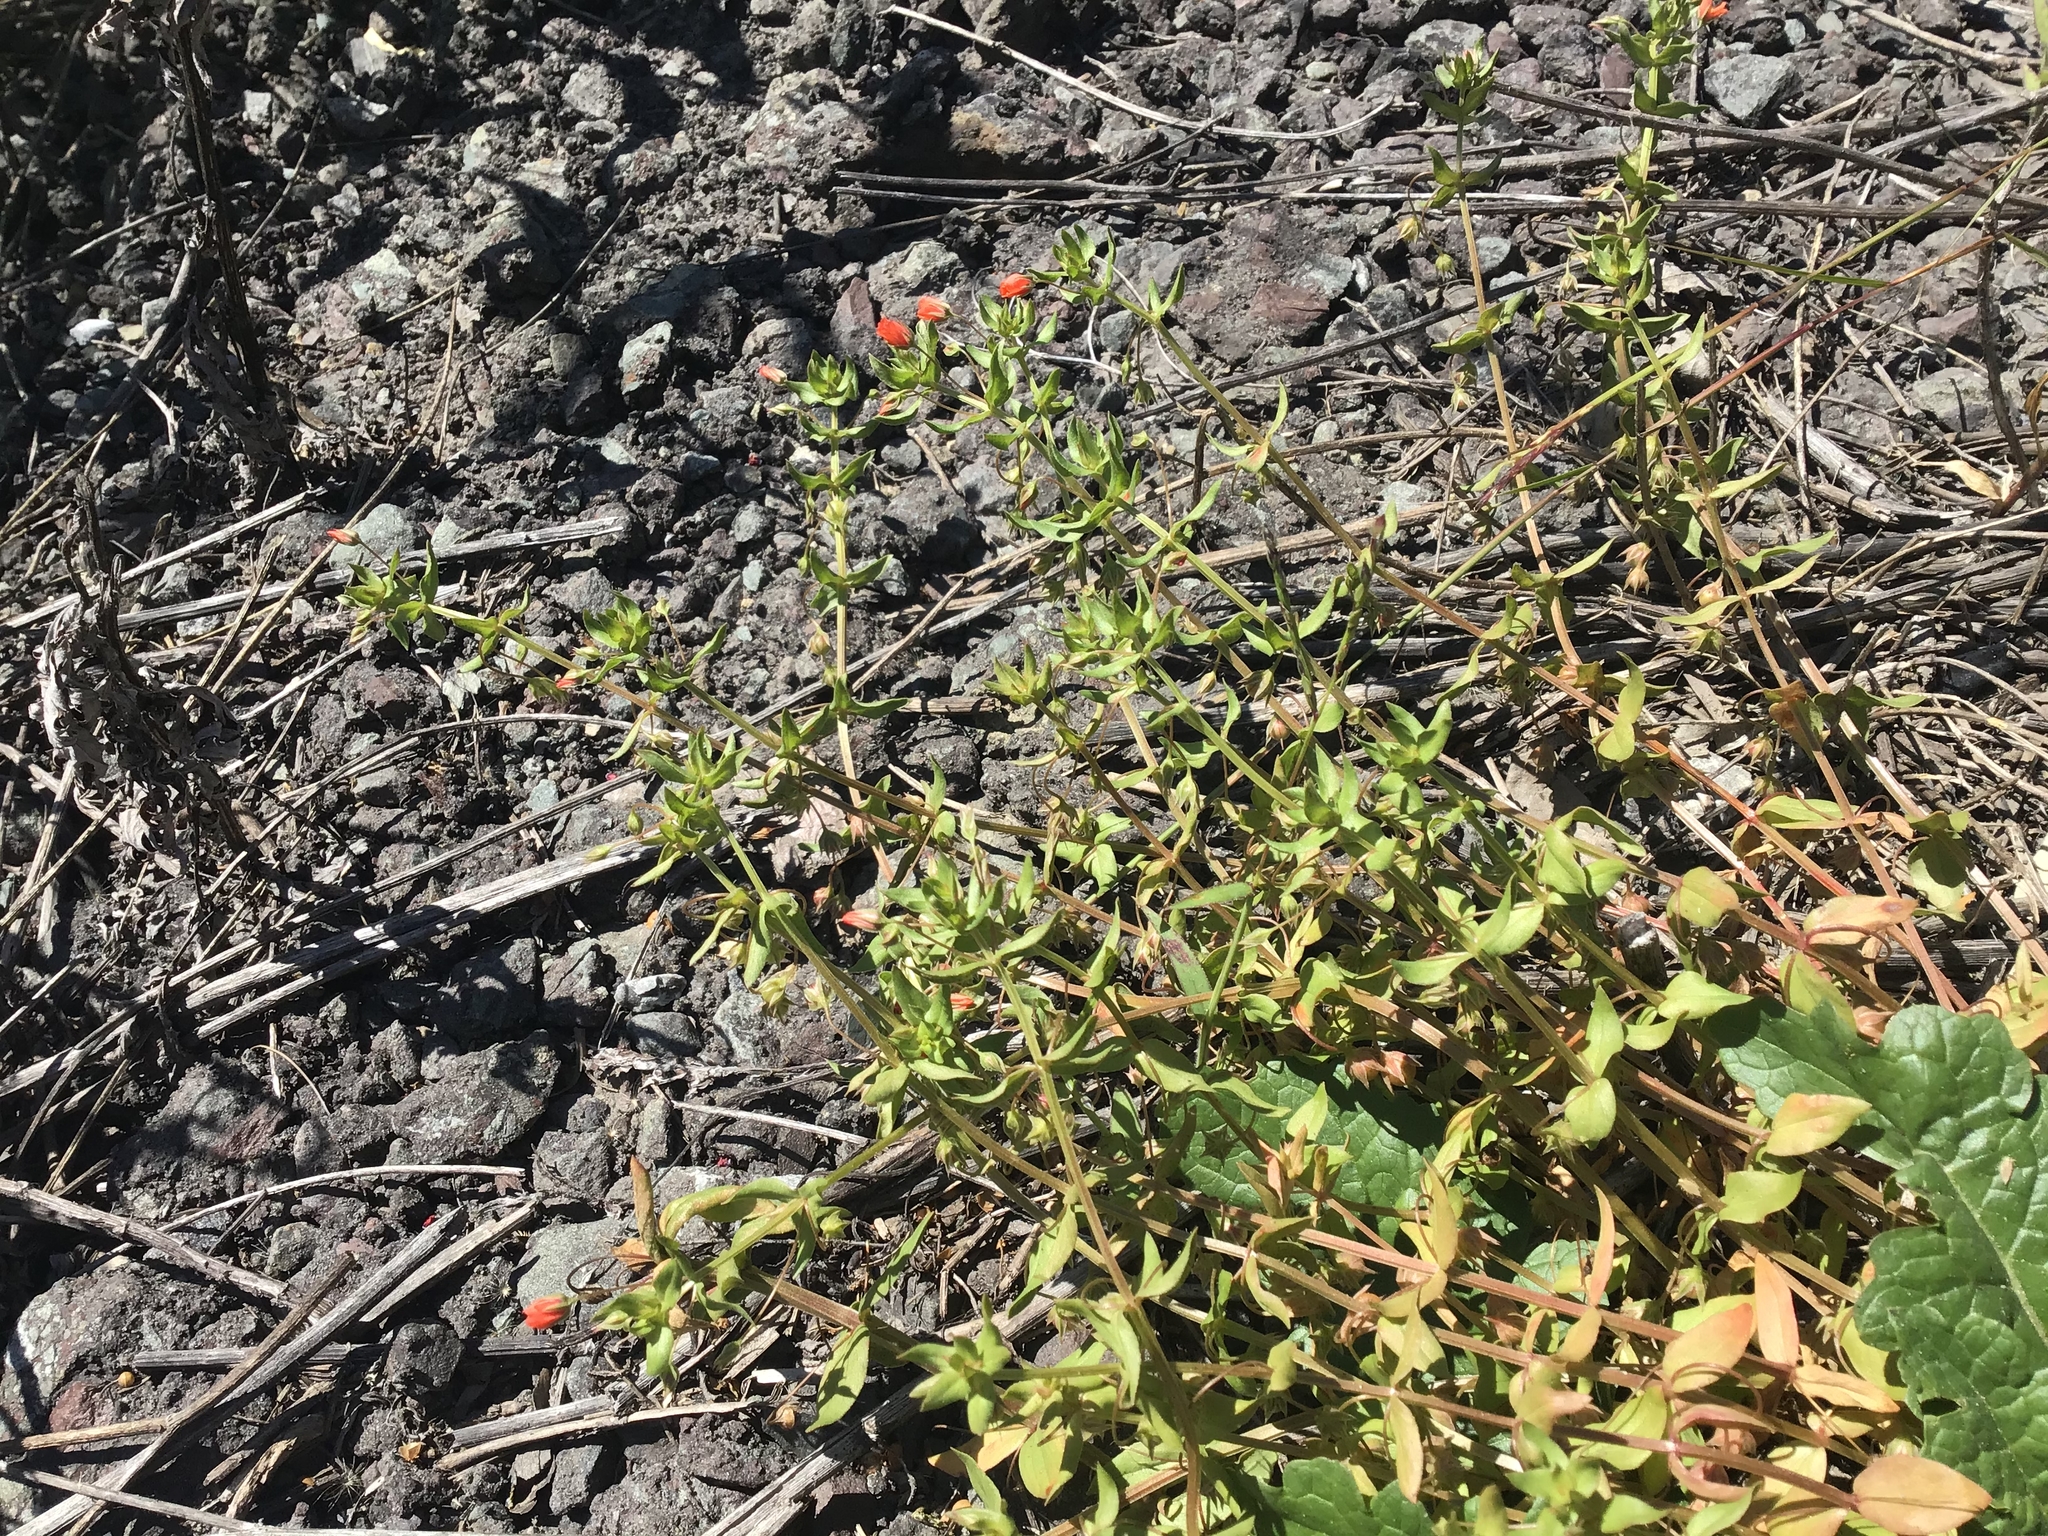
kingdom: Plantae
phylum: Tracheophyta
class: Magnoliopsida
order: Ericales
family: Primulaceae
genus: Lysimachia
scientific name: Lysimachia arvensis
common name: Scarlet pimpernel
